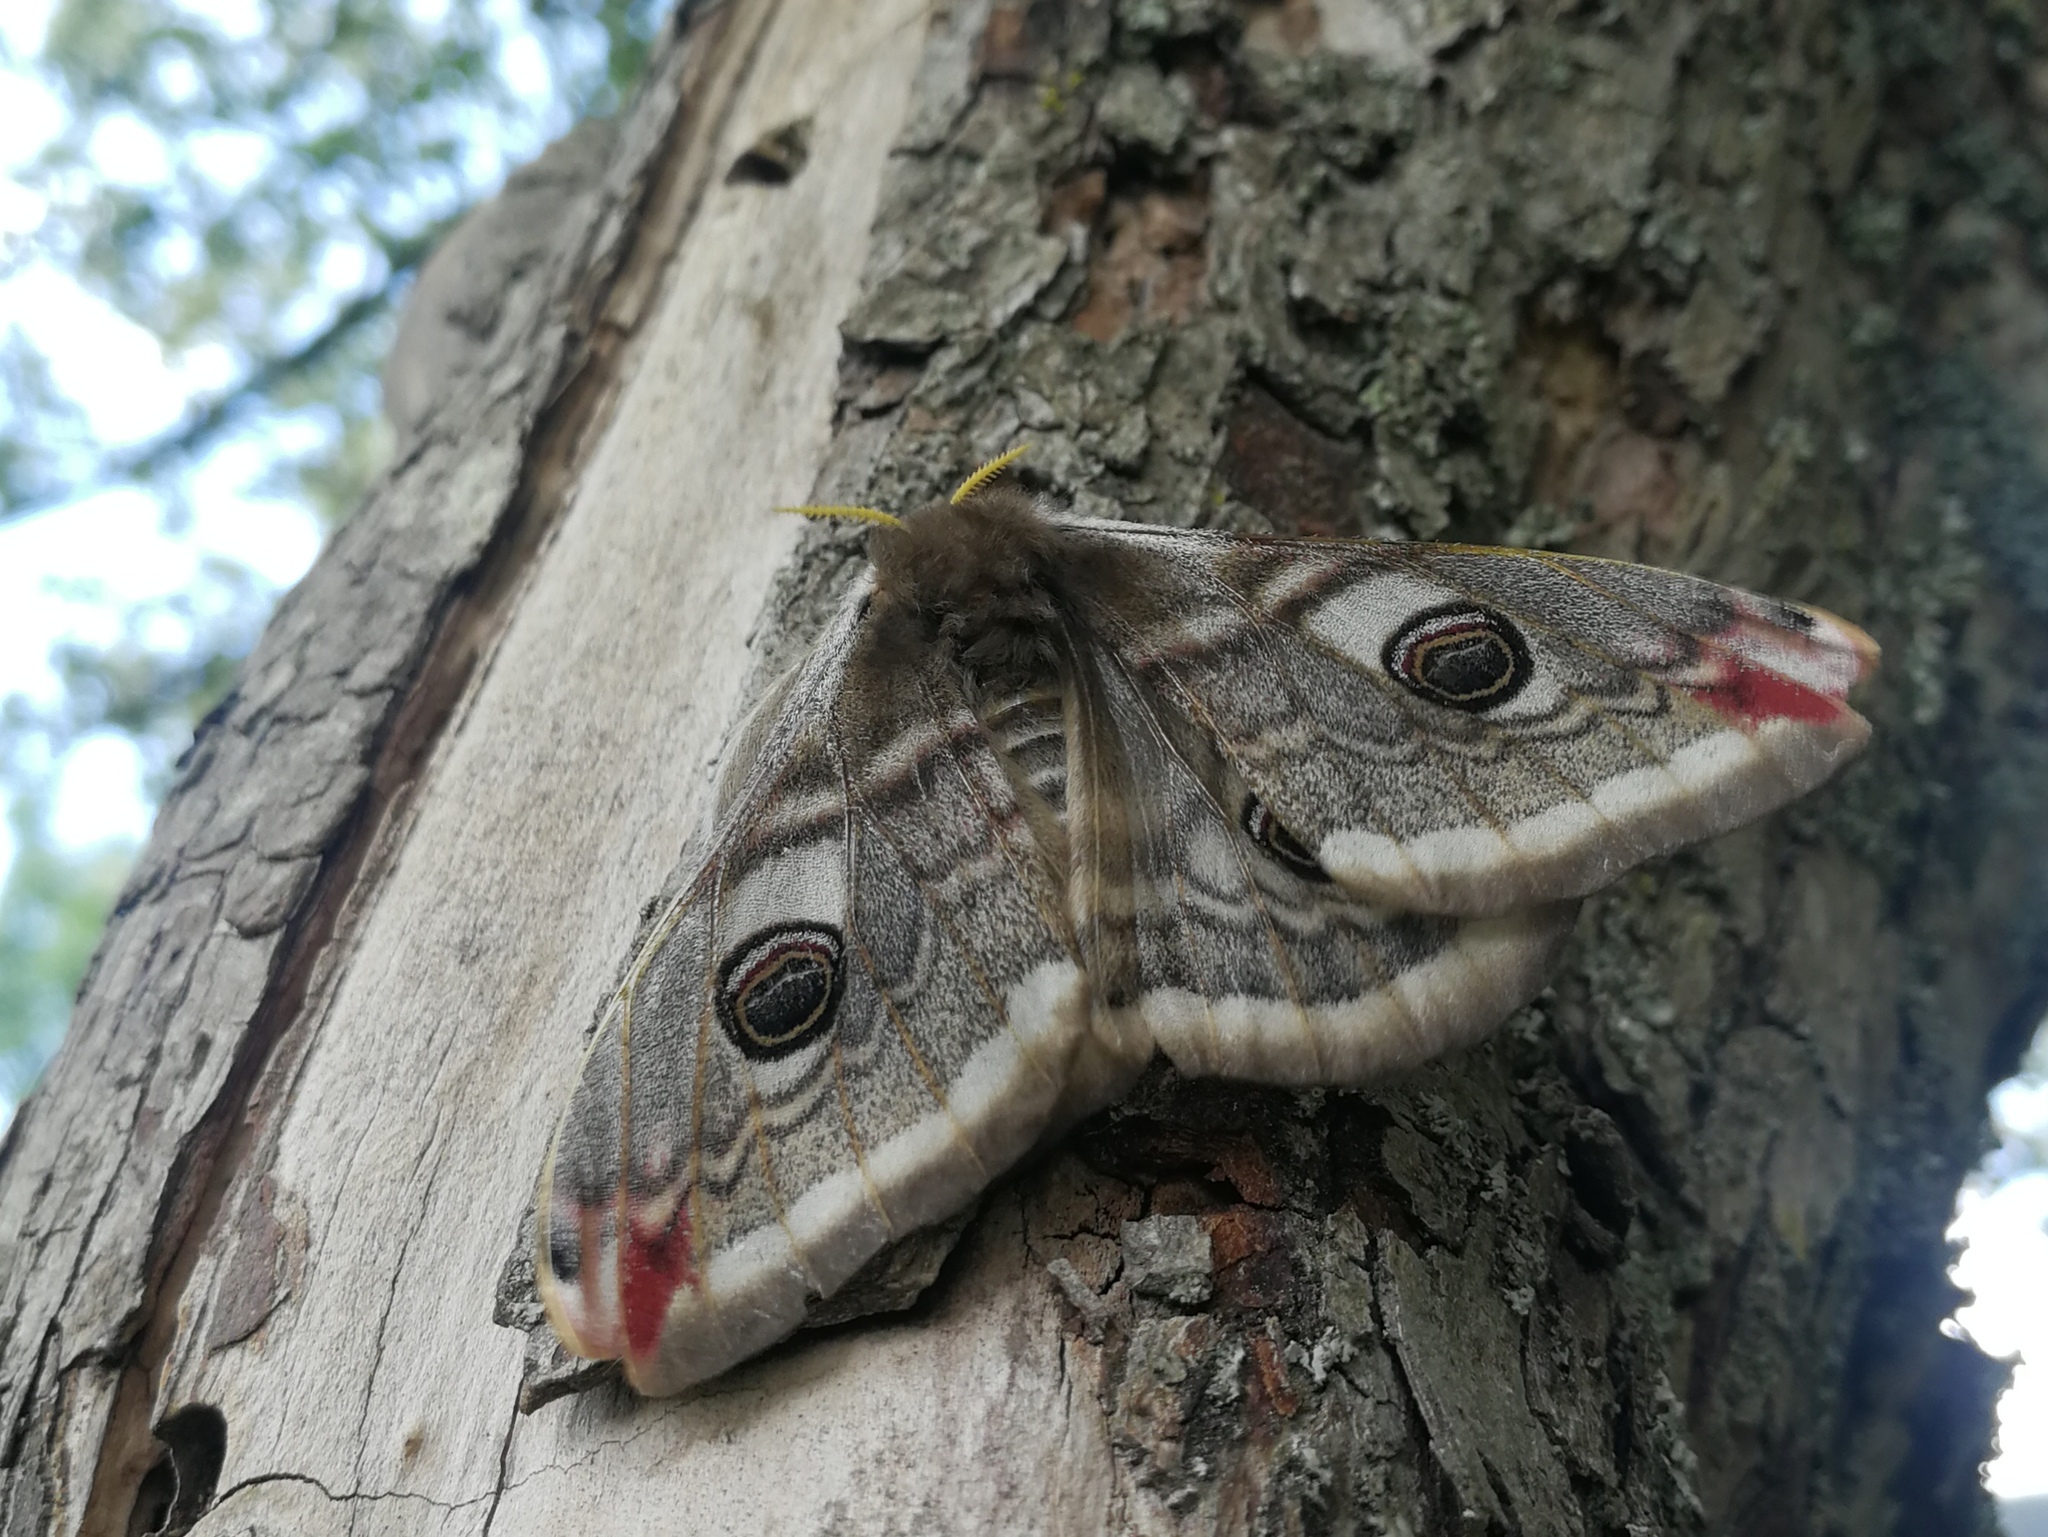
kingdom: Animalia
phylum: Arthropoda
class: Insecta
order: Lepidoptera
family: Saturniidae
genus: Saturnia
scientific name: Saturnia pavonia
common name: Emperor moth
